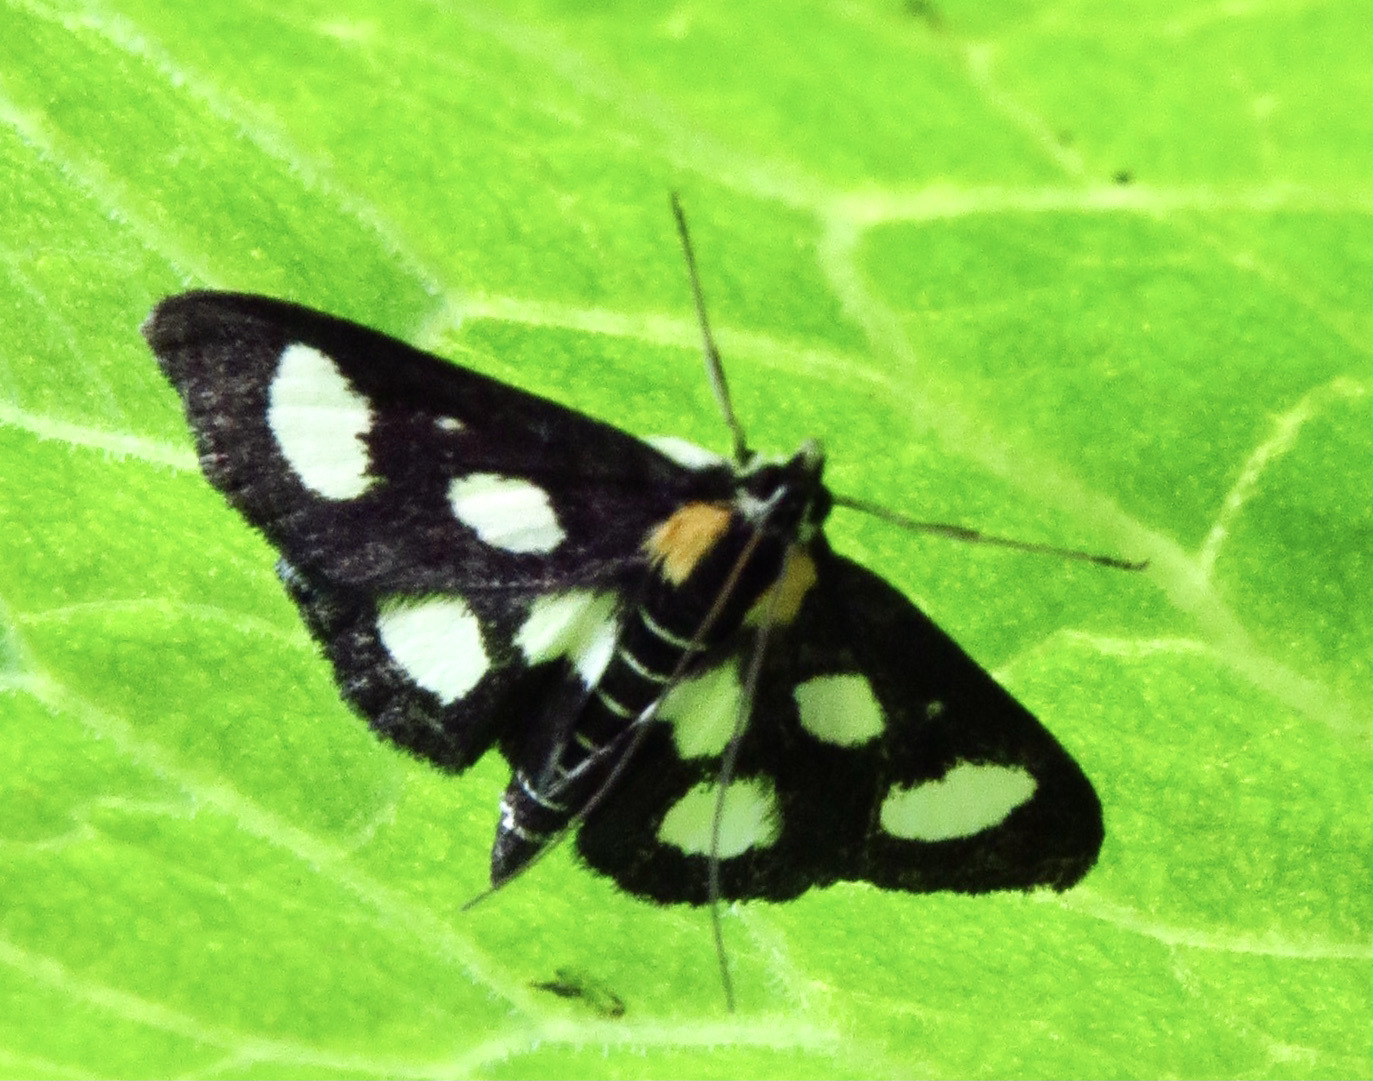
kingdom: Animalia
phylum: Arthropoda
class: Insecta
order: Lepidoptera
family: Crambidae
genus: Anania
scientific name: Anania funebris
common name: White-spotted sable moth
